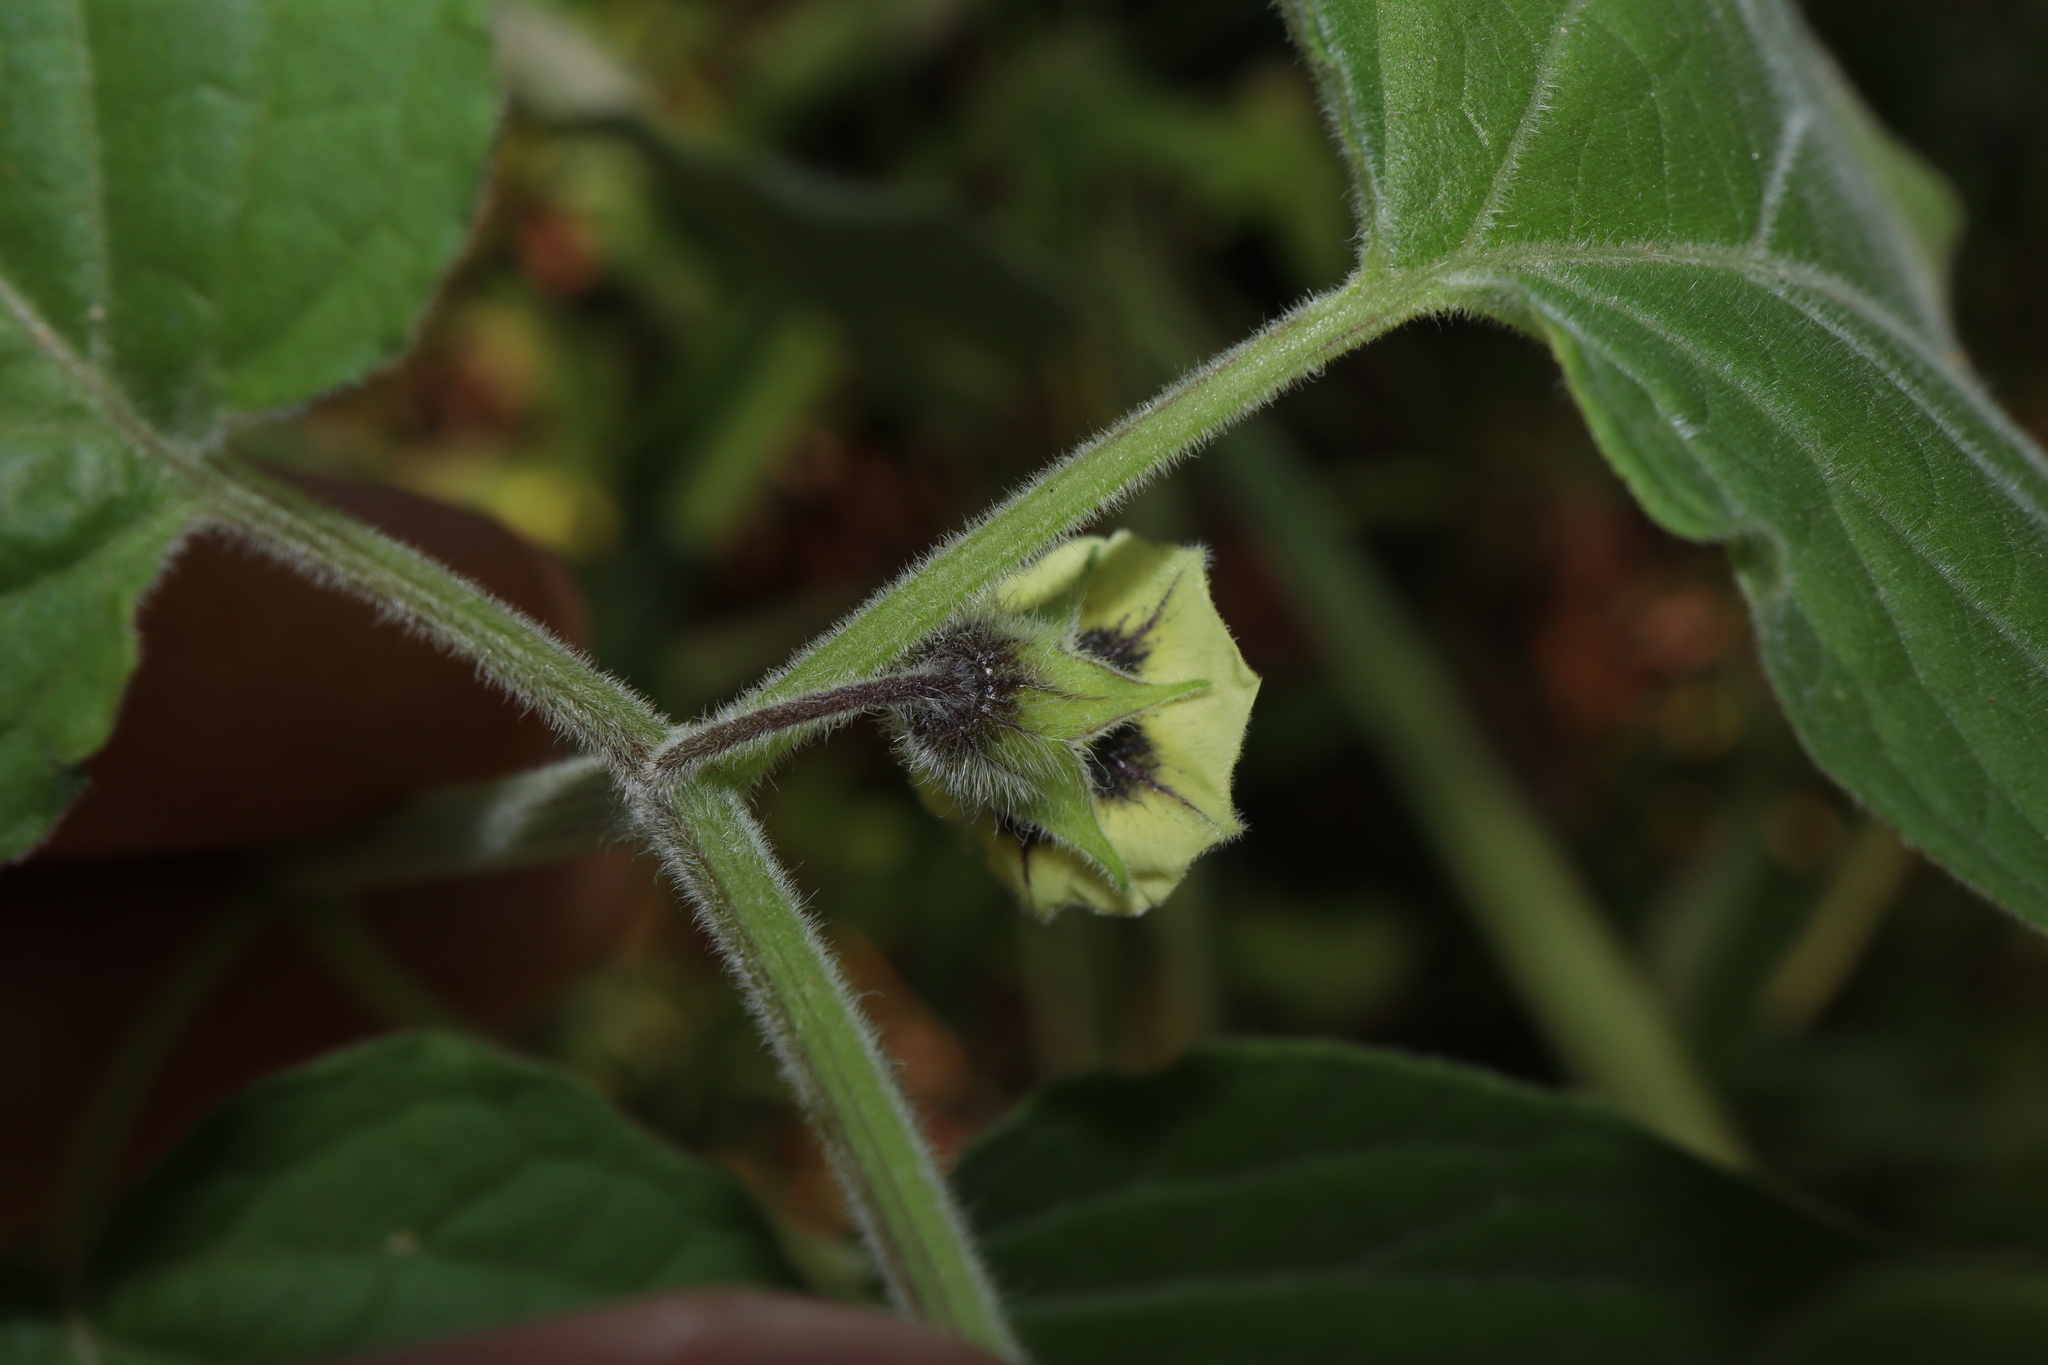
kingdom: Plantae
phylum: Tracheophyta
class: Magnoliopsida
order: Solanales
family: Solanaceae
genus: Physalis
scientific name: Physalis peruviana
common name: Cape-gooseberry
